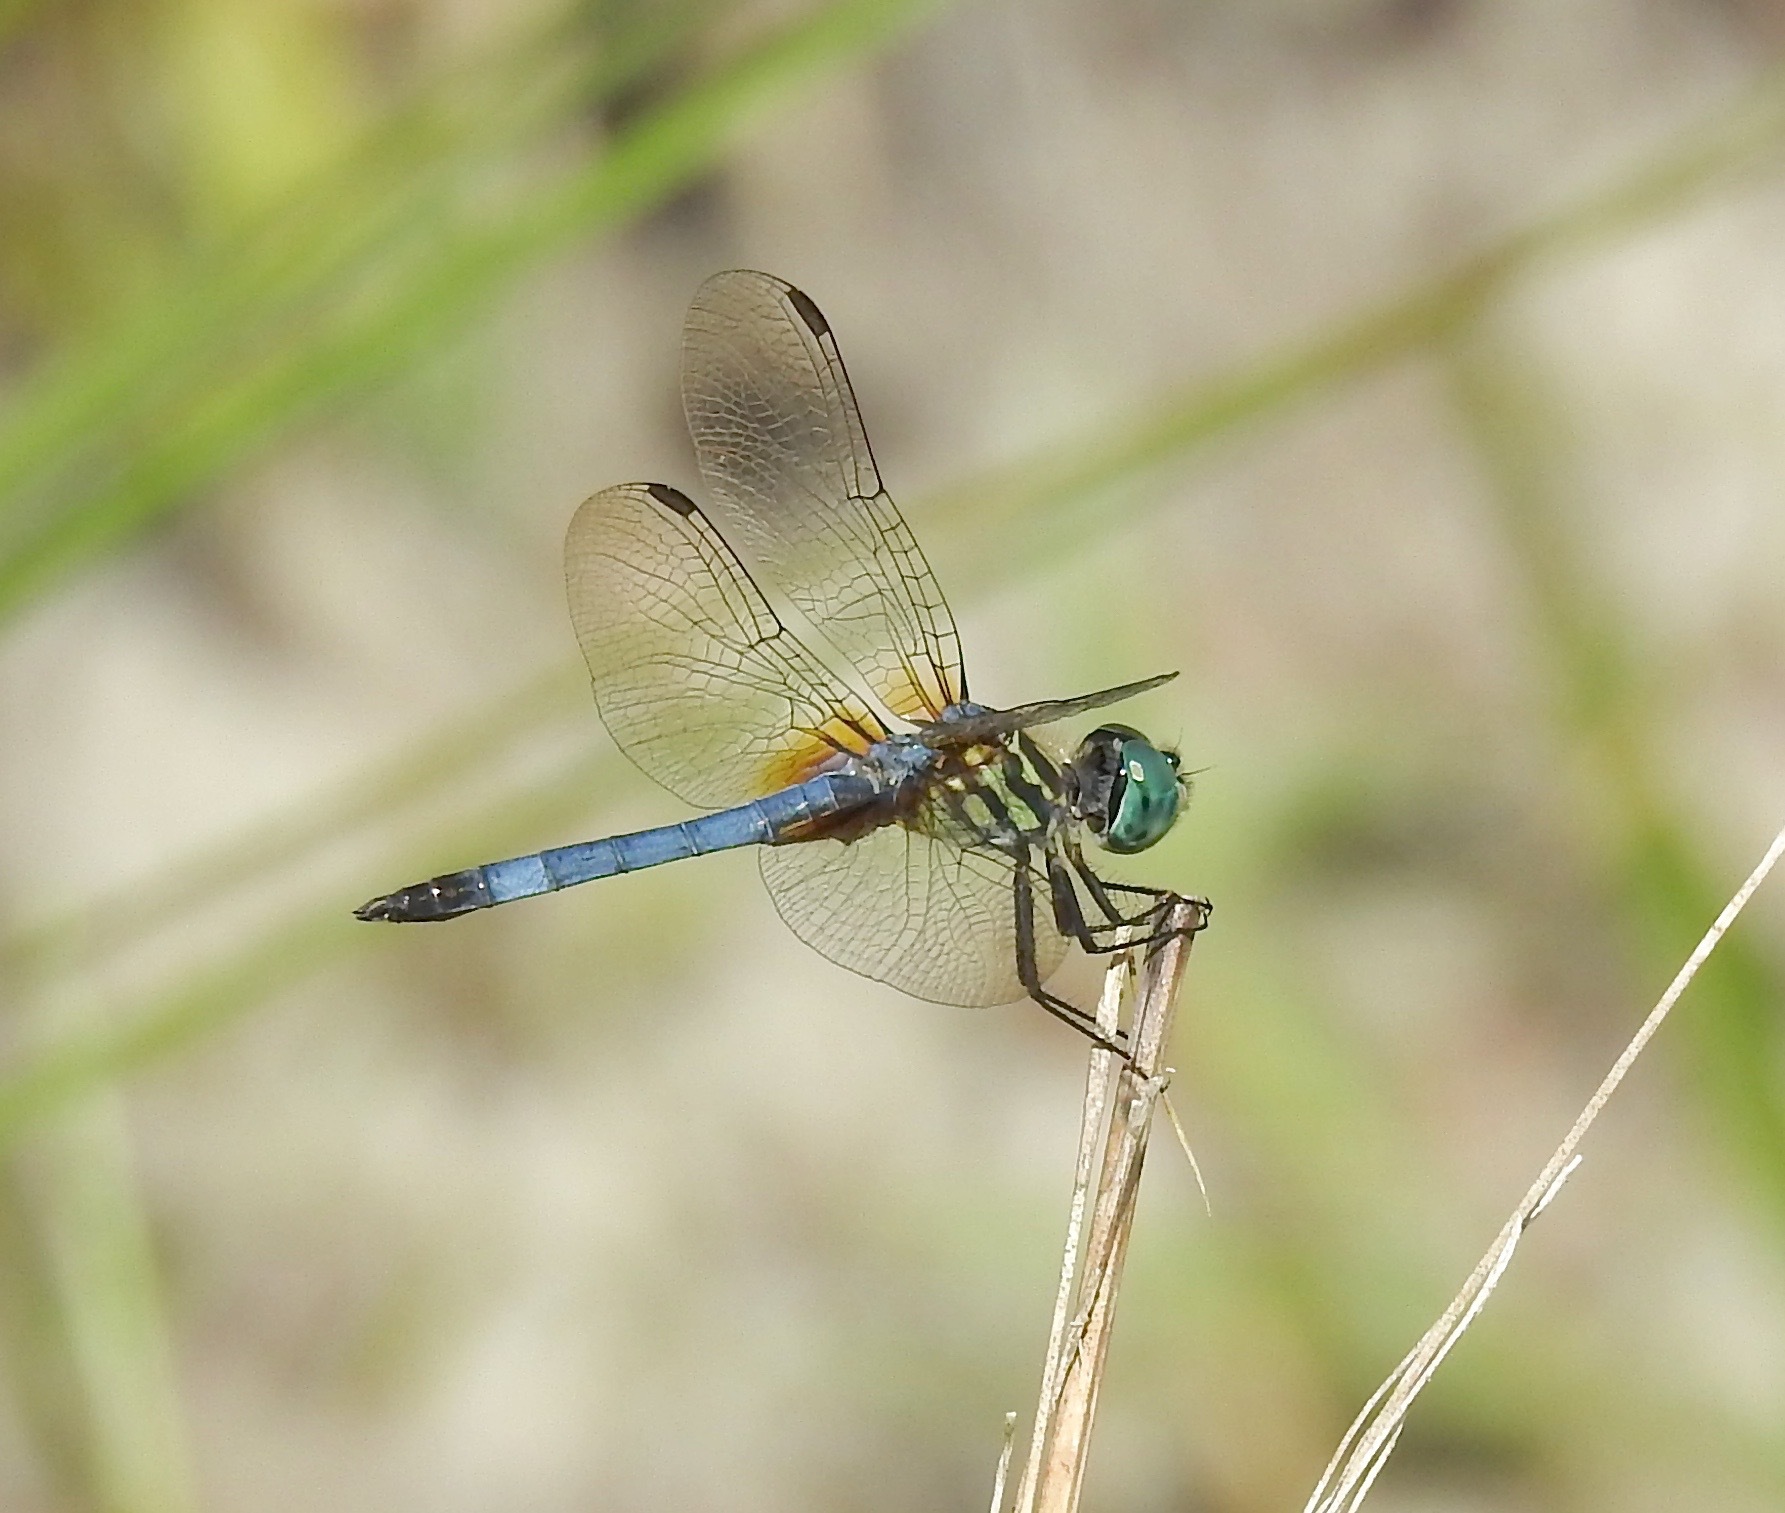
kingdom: Animalia
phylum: Arthropoda
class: Insecta
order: Odonata
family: Libellulidae
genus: Pachydiplax
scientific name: Pachydiplax longipennis
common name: Blue dasher
